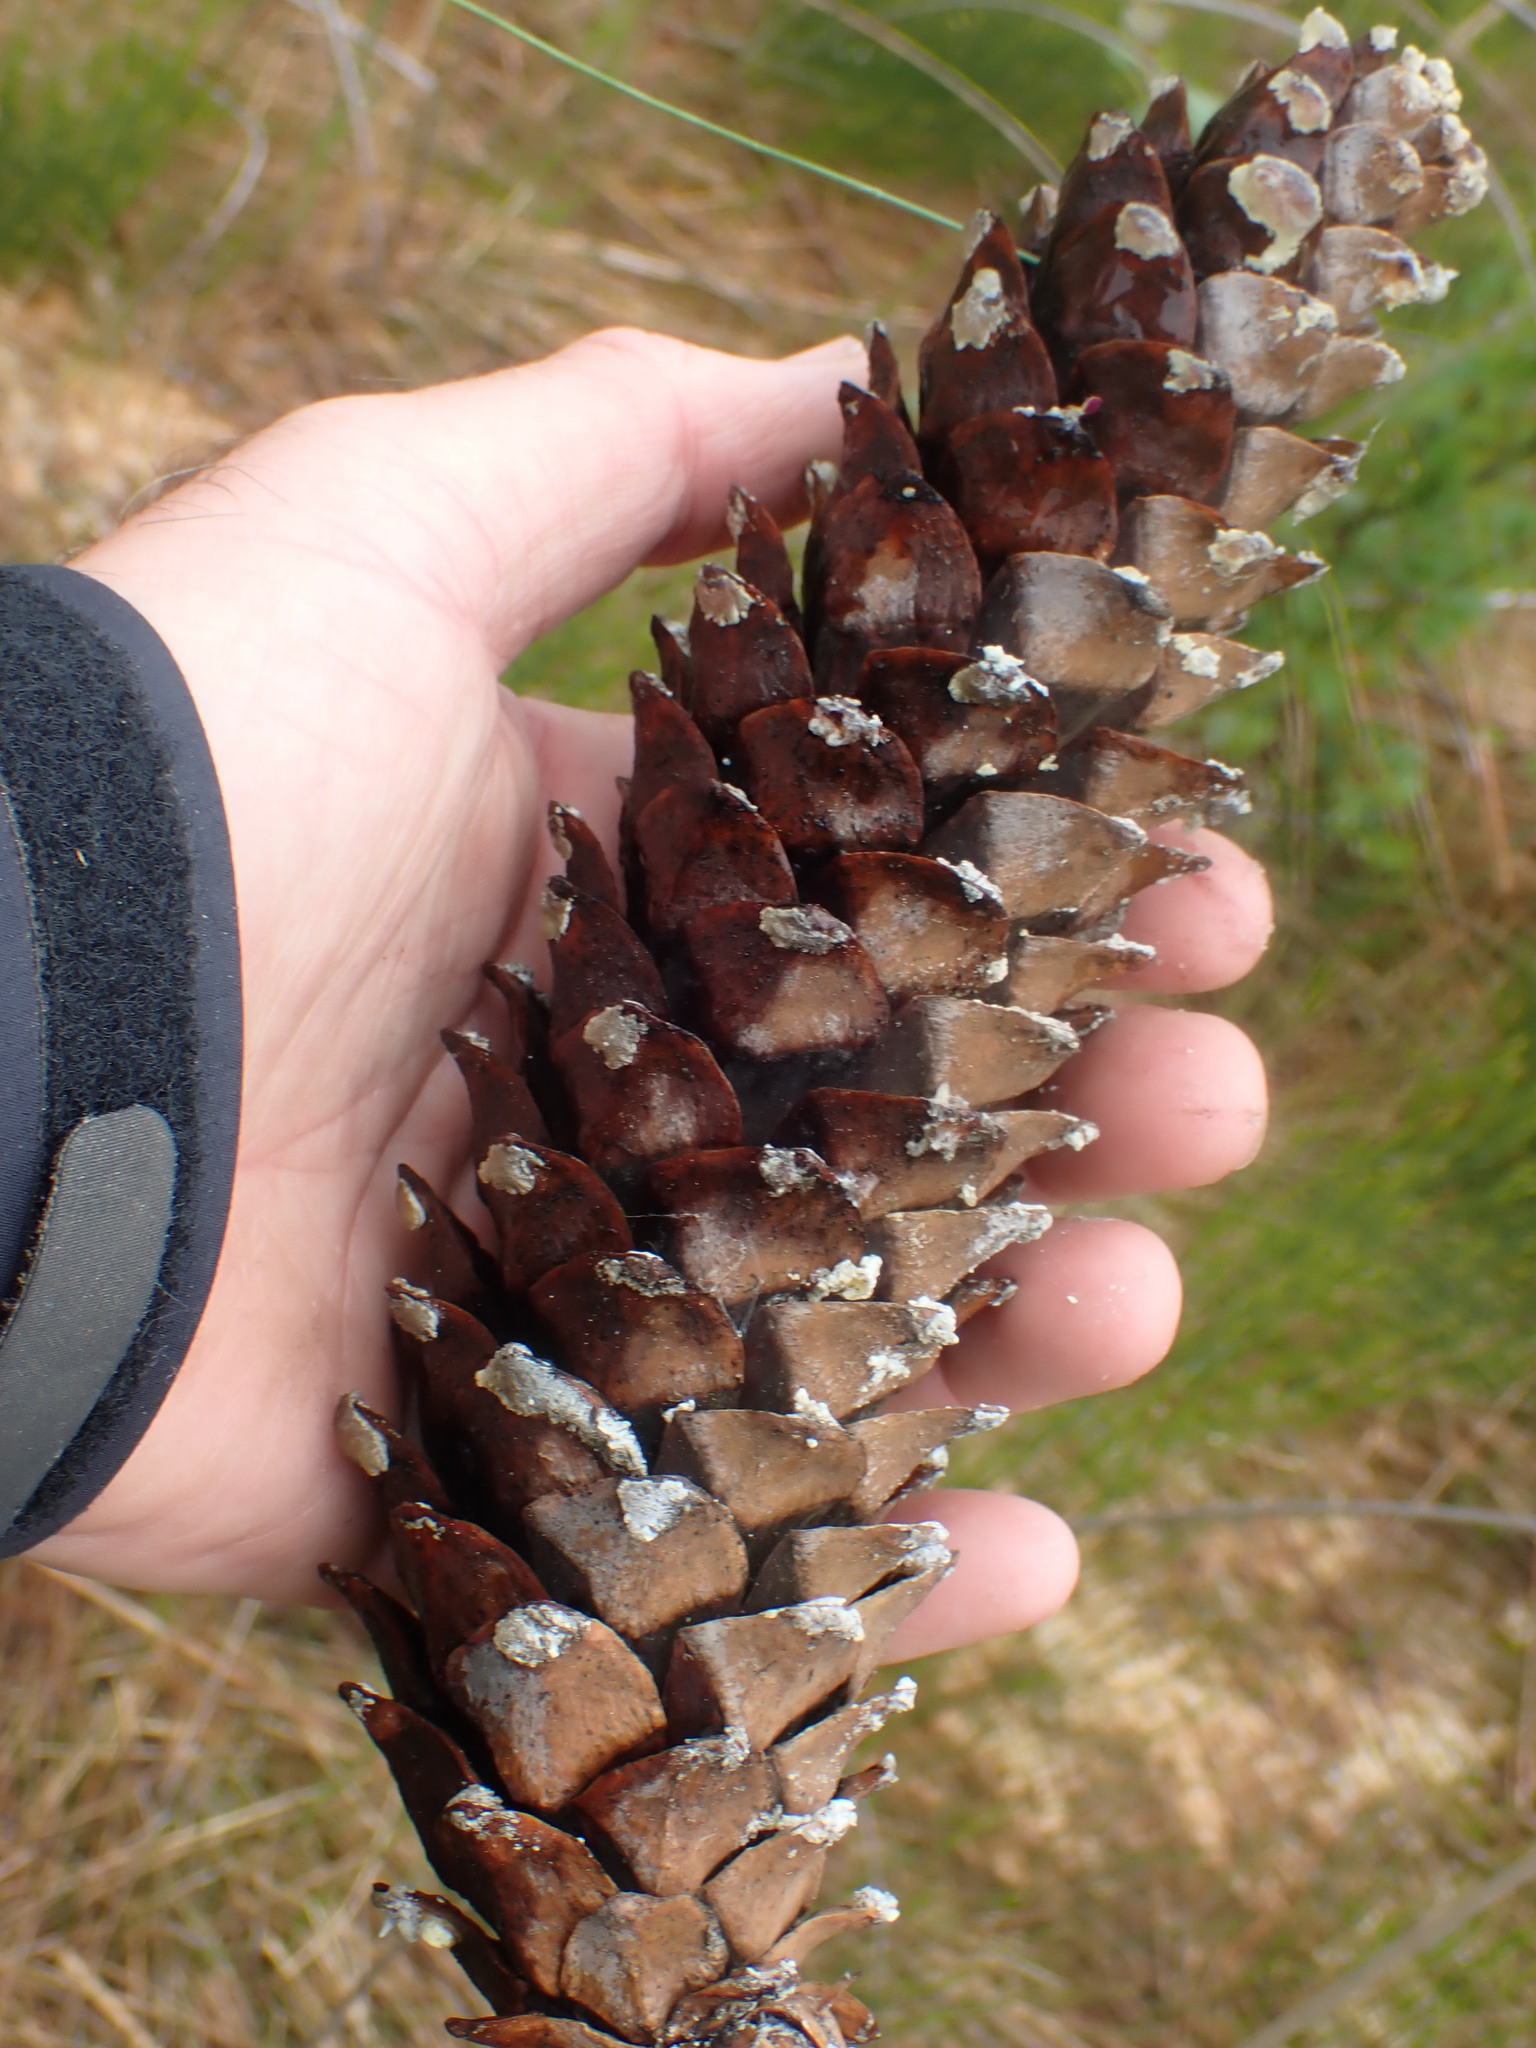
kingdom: Plantae
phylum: Tracheophyta
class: Pinopsida
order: Pinales
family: Pinaceae
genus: Pinus
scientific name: Pinus monticola
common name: Western white pine
